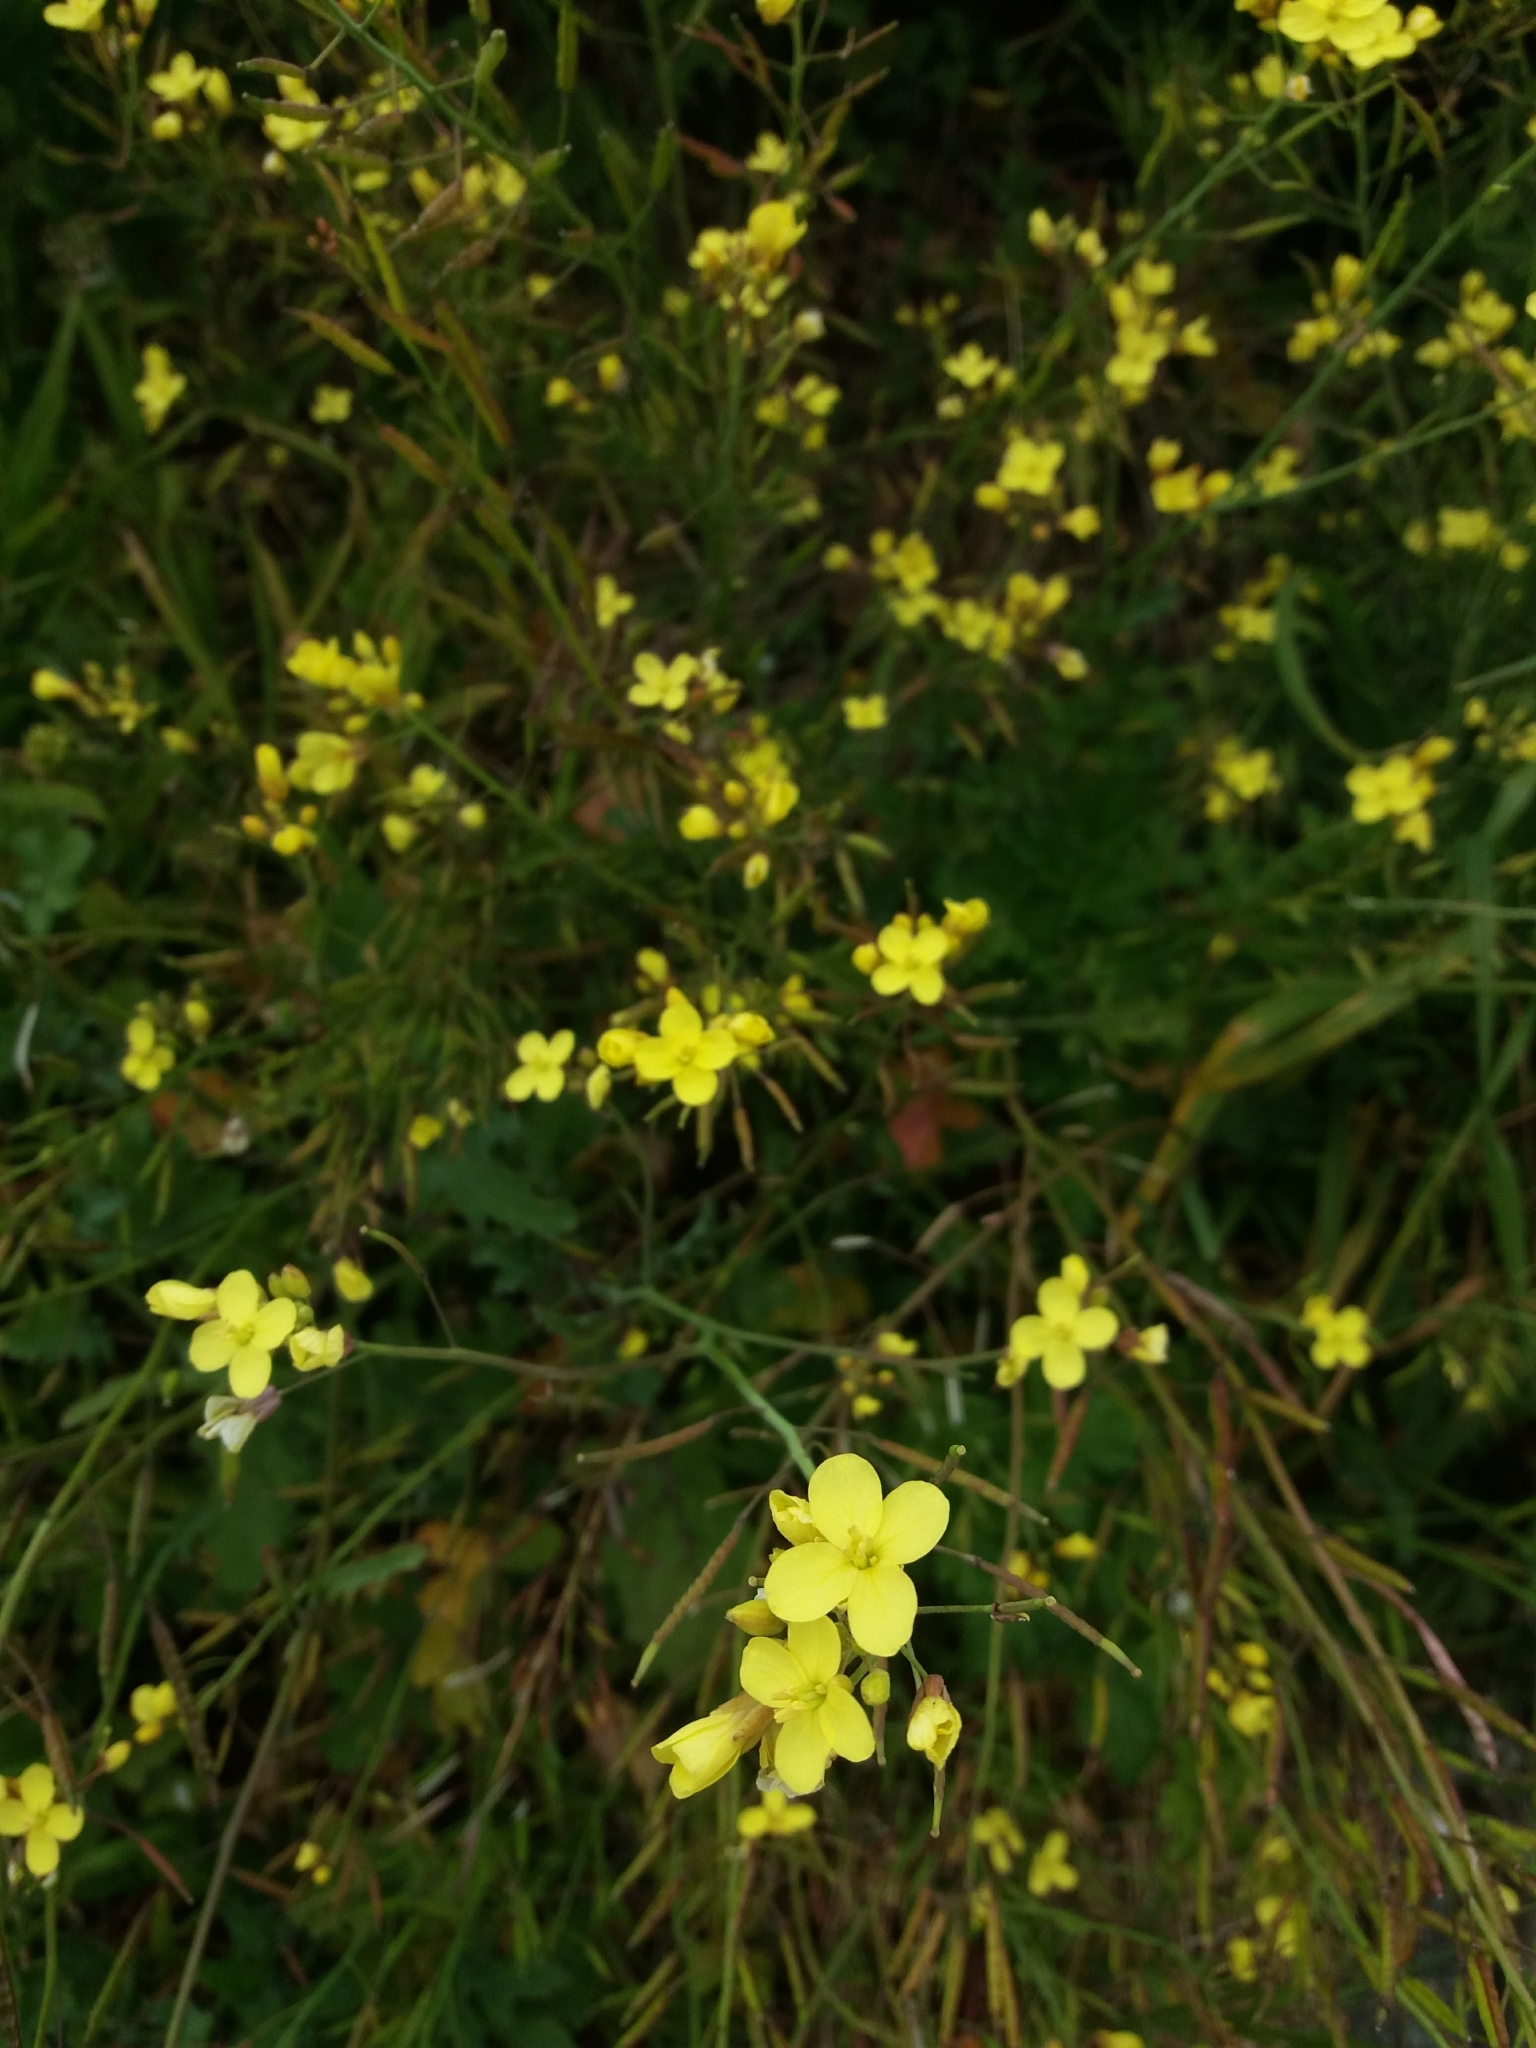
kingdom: Plantae
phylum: Tracheophyta
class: Magnoliopsida
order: Brassicales
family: Brassicaceae
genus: Diplotaxis
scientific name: Diplotaxis muralis
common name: Annual wall-rocket
